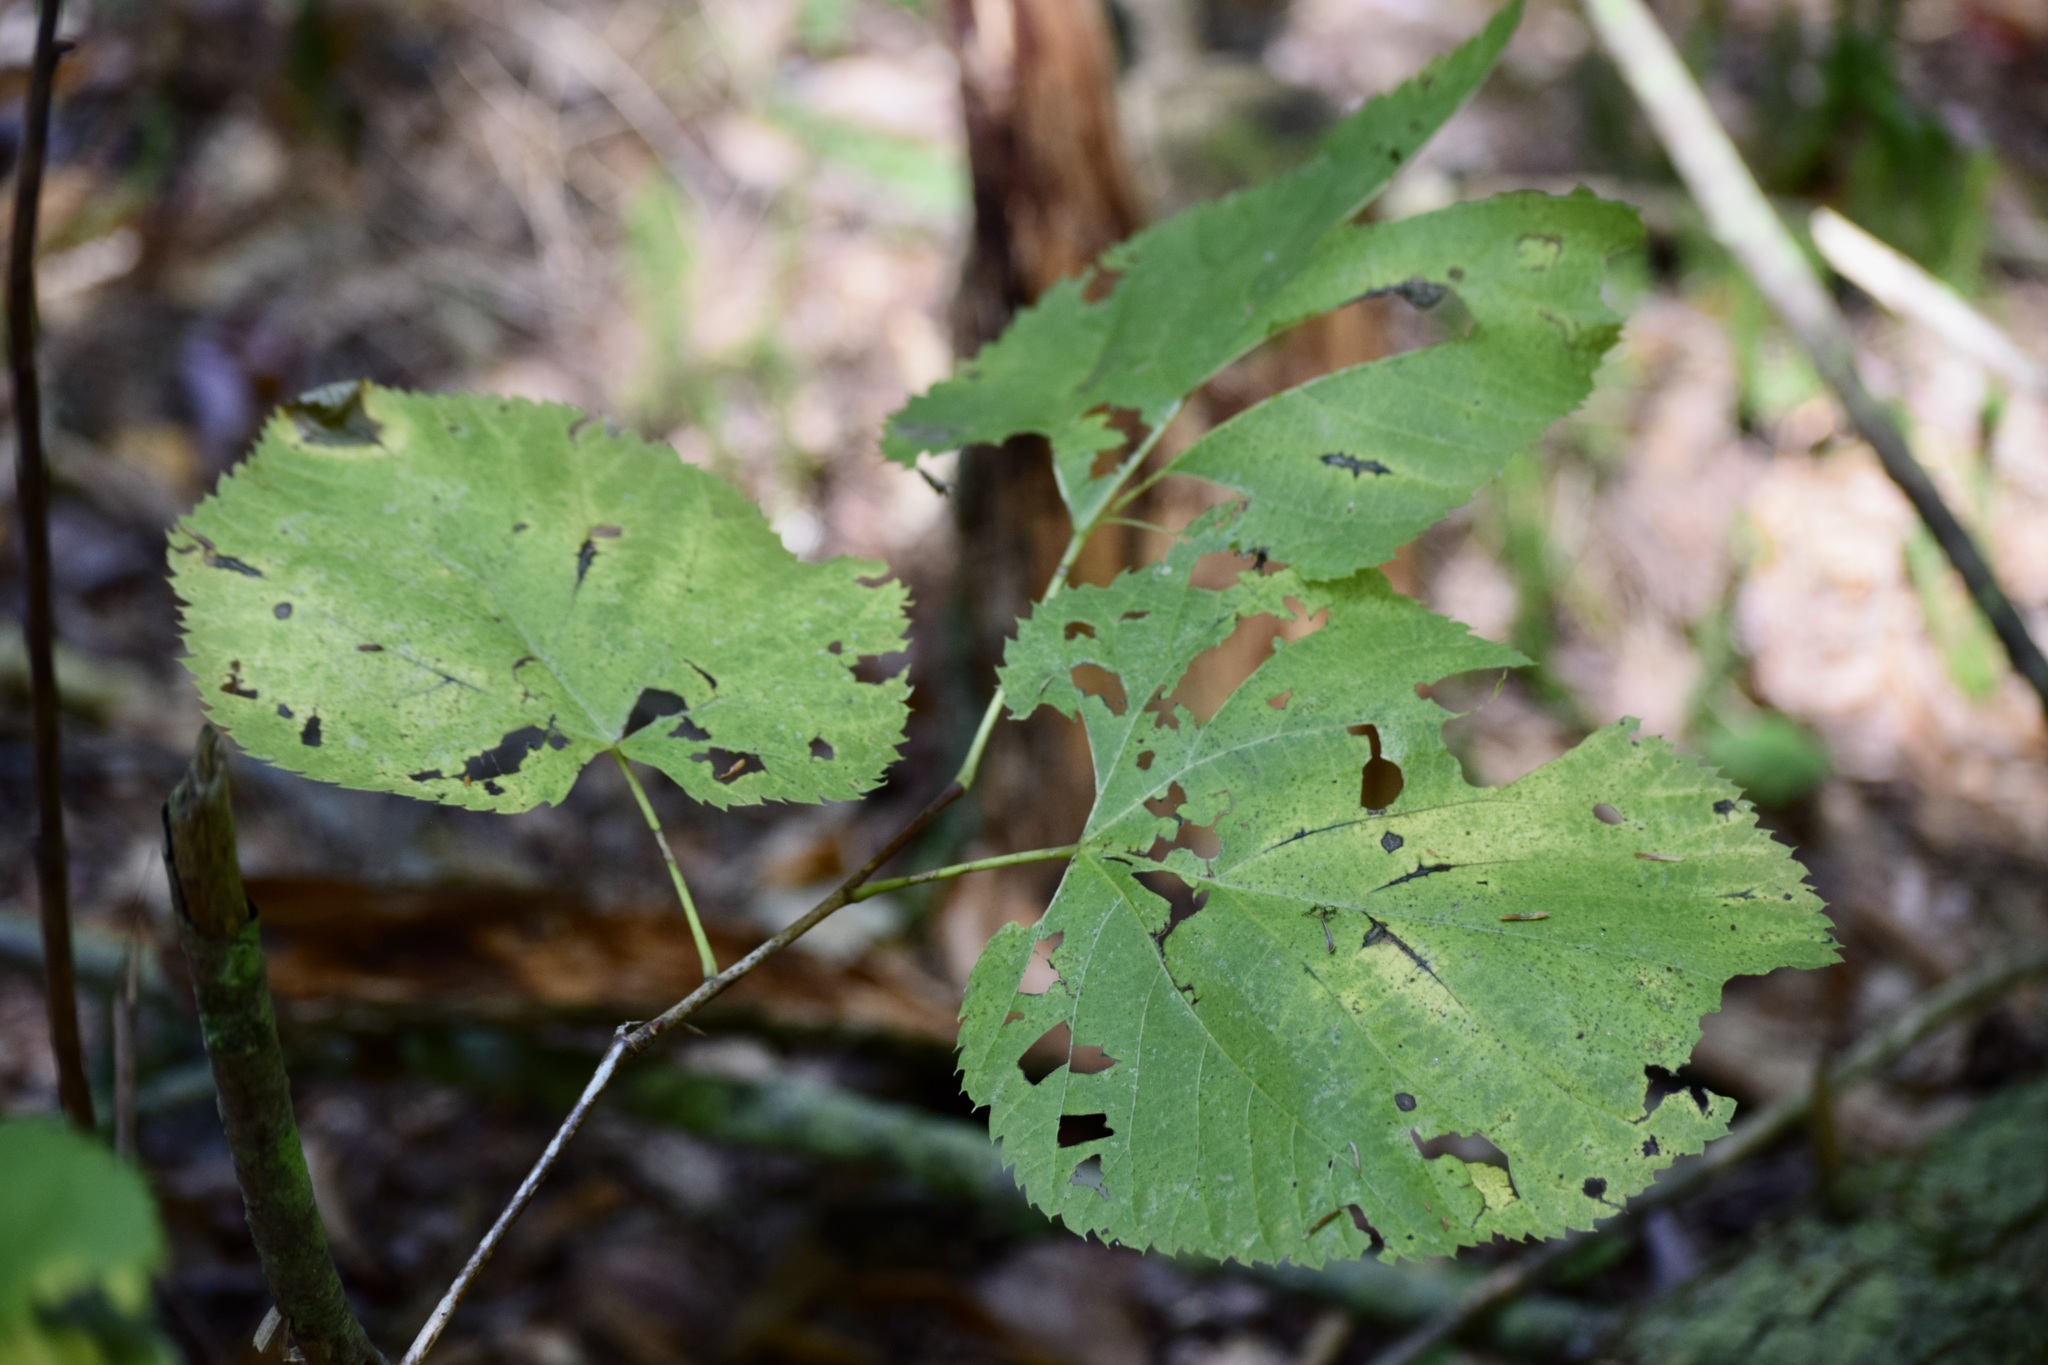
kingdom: Plantae
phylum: Tracheophyta
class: Magnoliopsida
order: Malvales
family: Malvaceae
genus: Tilia
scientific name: Tilia americana
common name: Basswood
